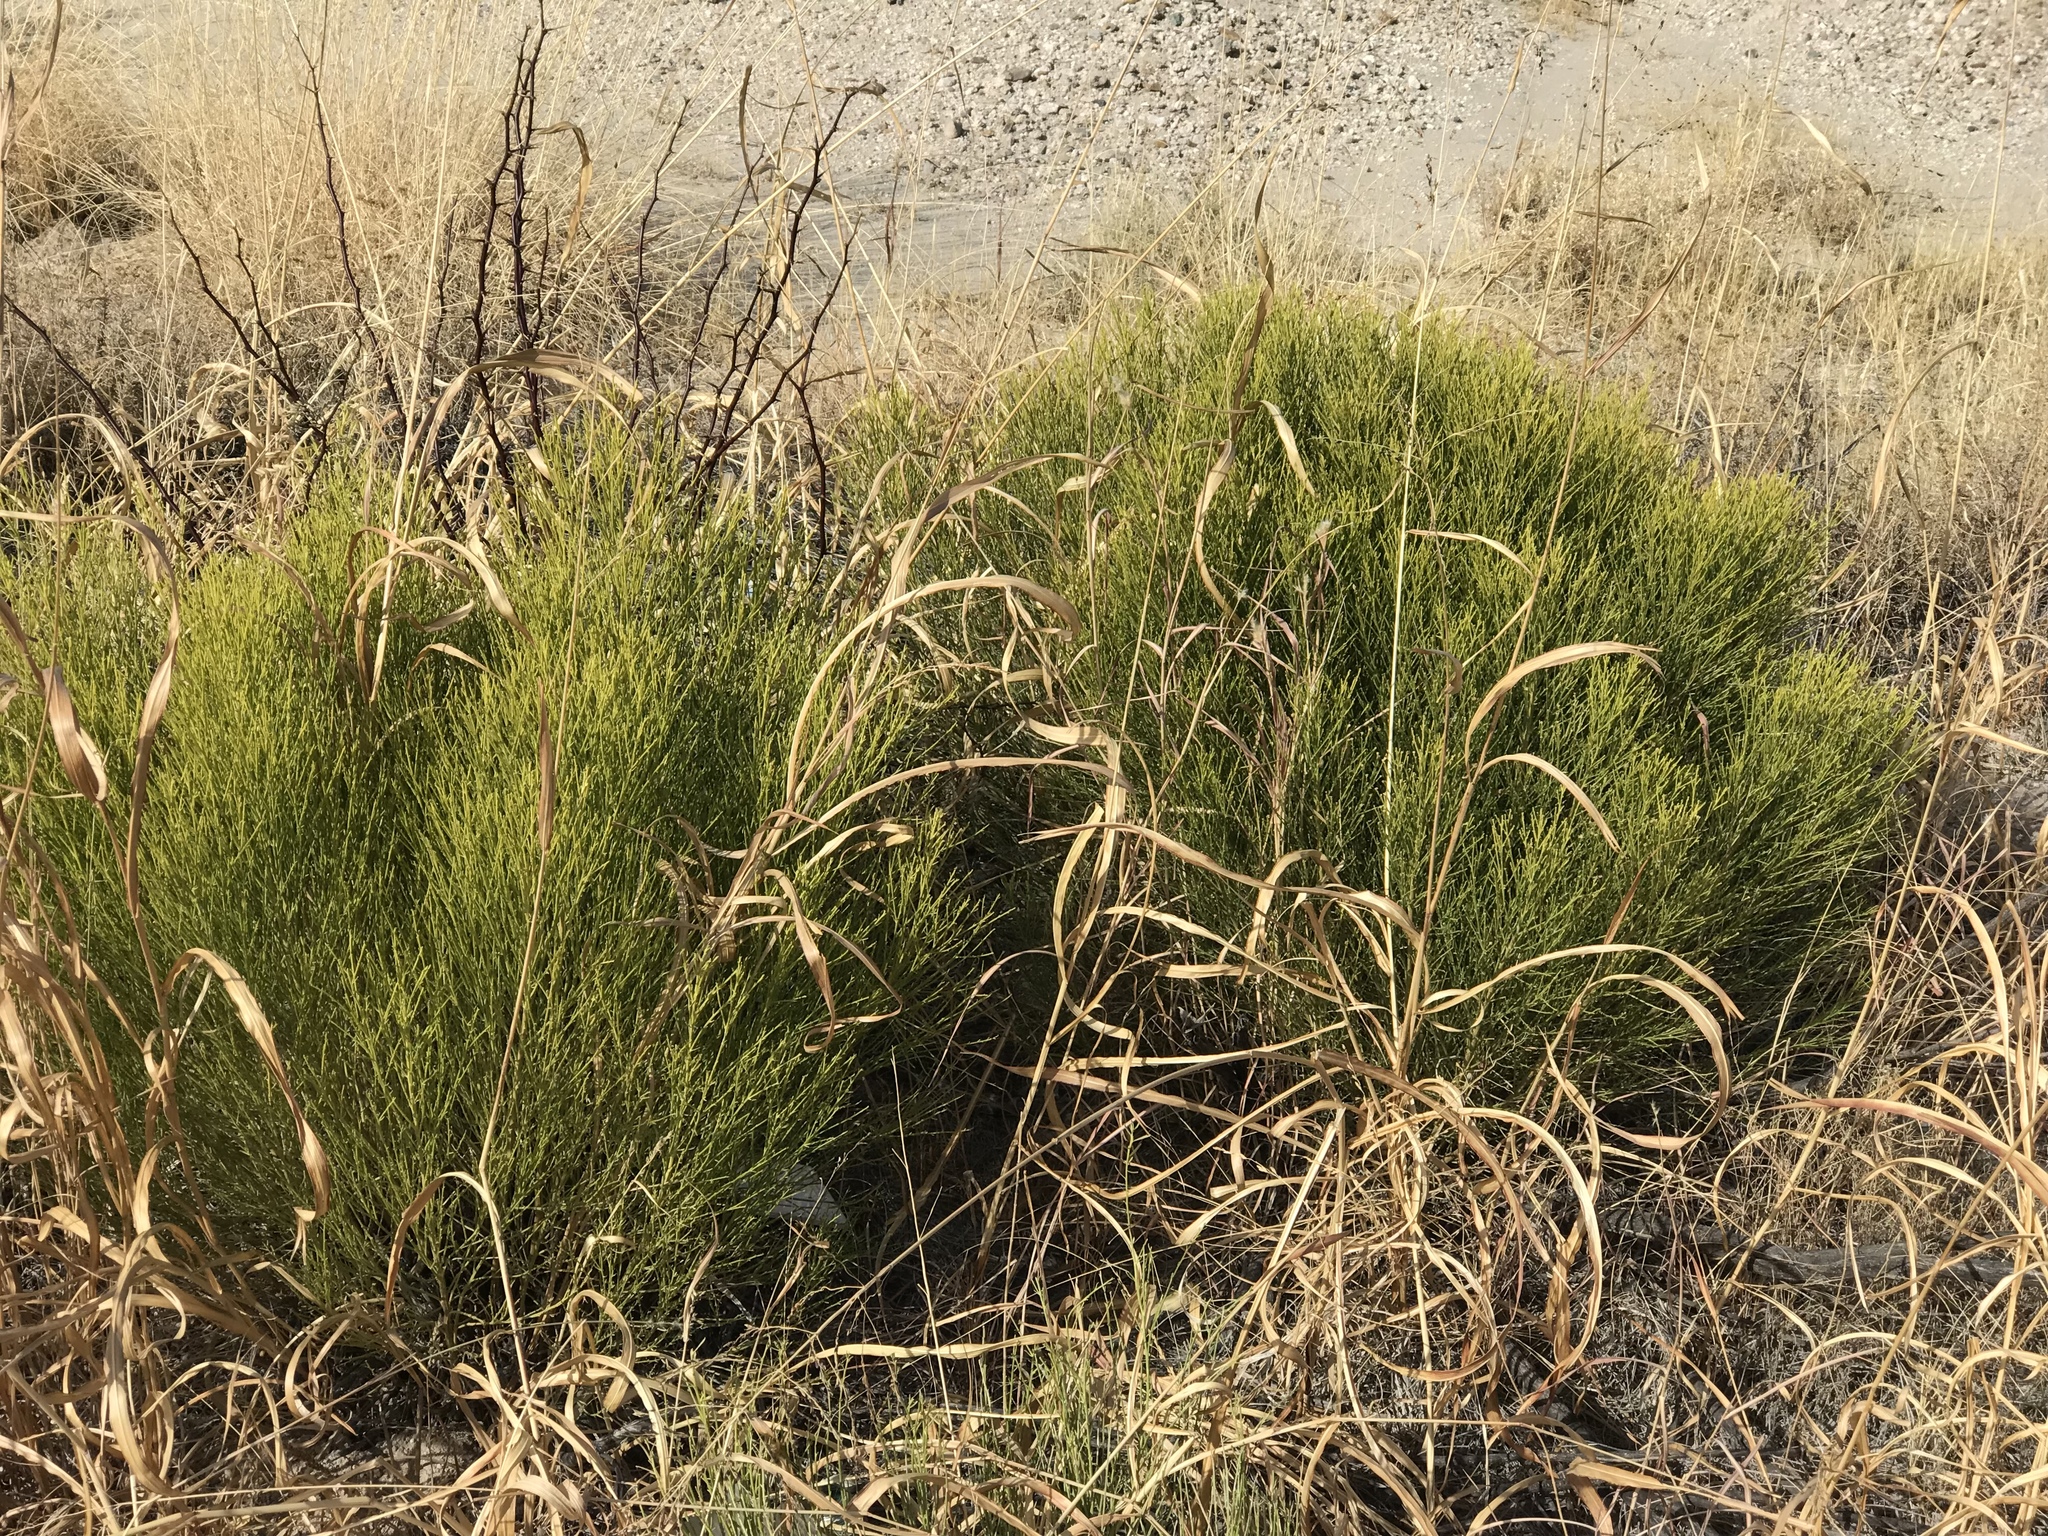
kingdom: Plantae
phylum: Tracheophyta
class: Magnoliopsida
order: Asterales
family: Asteraceae
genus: Baccharis
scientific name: Baccharis sarothroides
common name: Desert-broom
